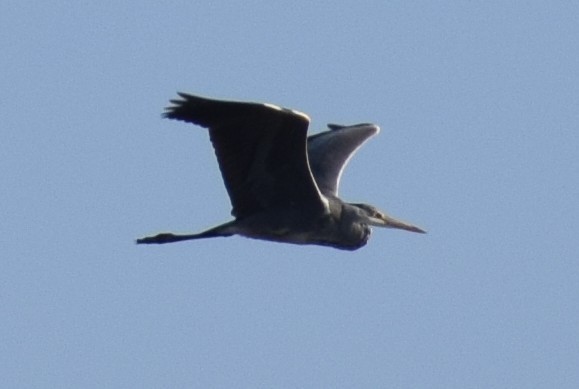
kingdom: Animalia
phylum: Chordata
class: Aves
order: Pelecaniformes
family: Ardeidae
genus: Ardea
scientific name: Ardea cinerea
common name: Grey heron
